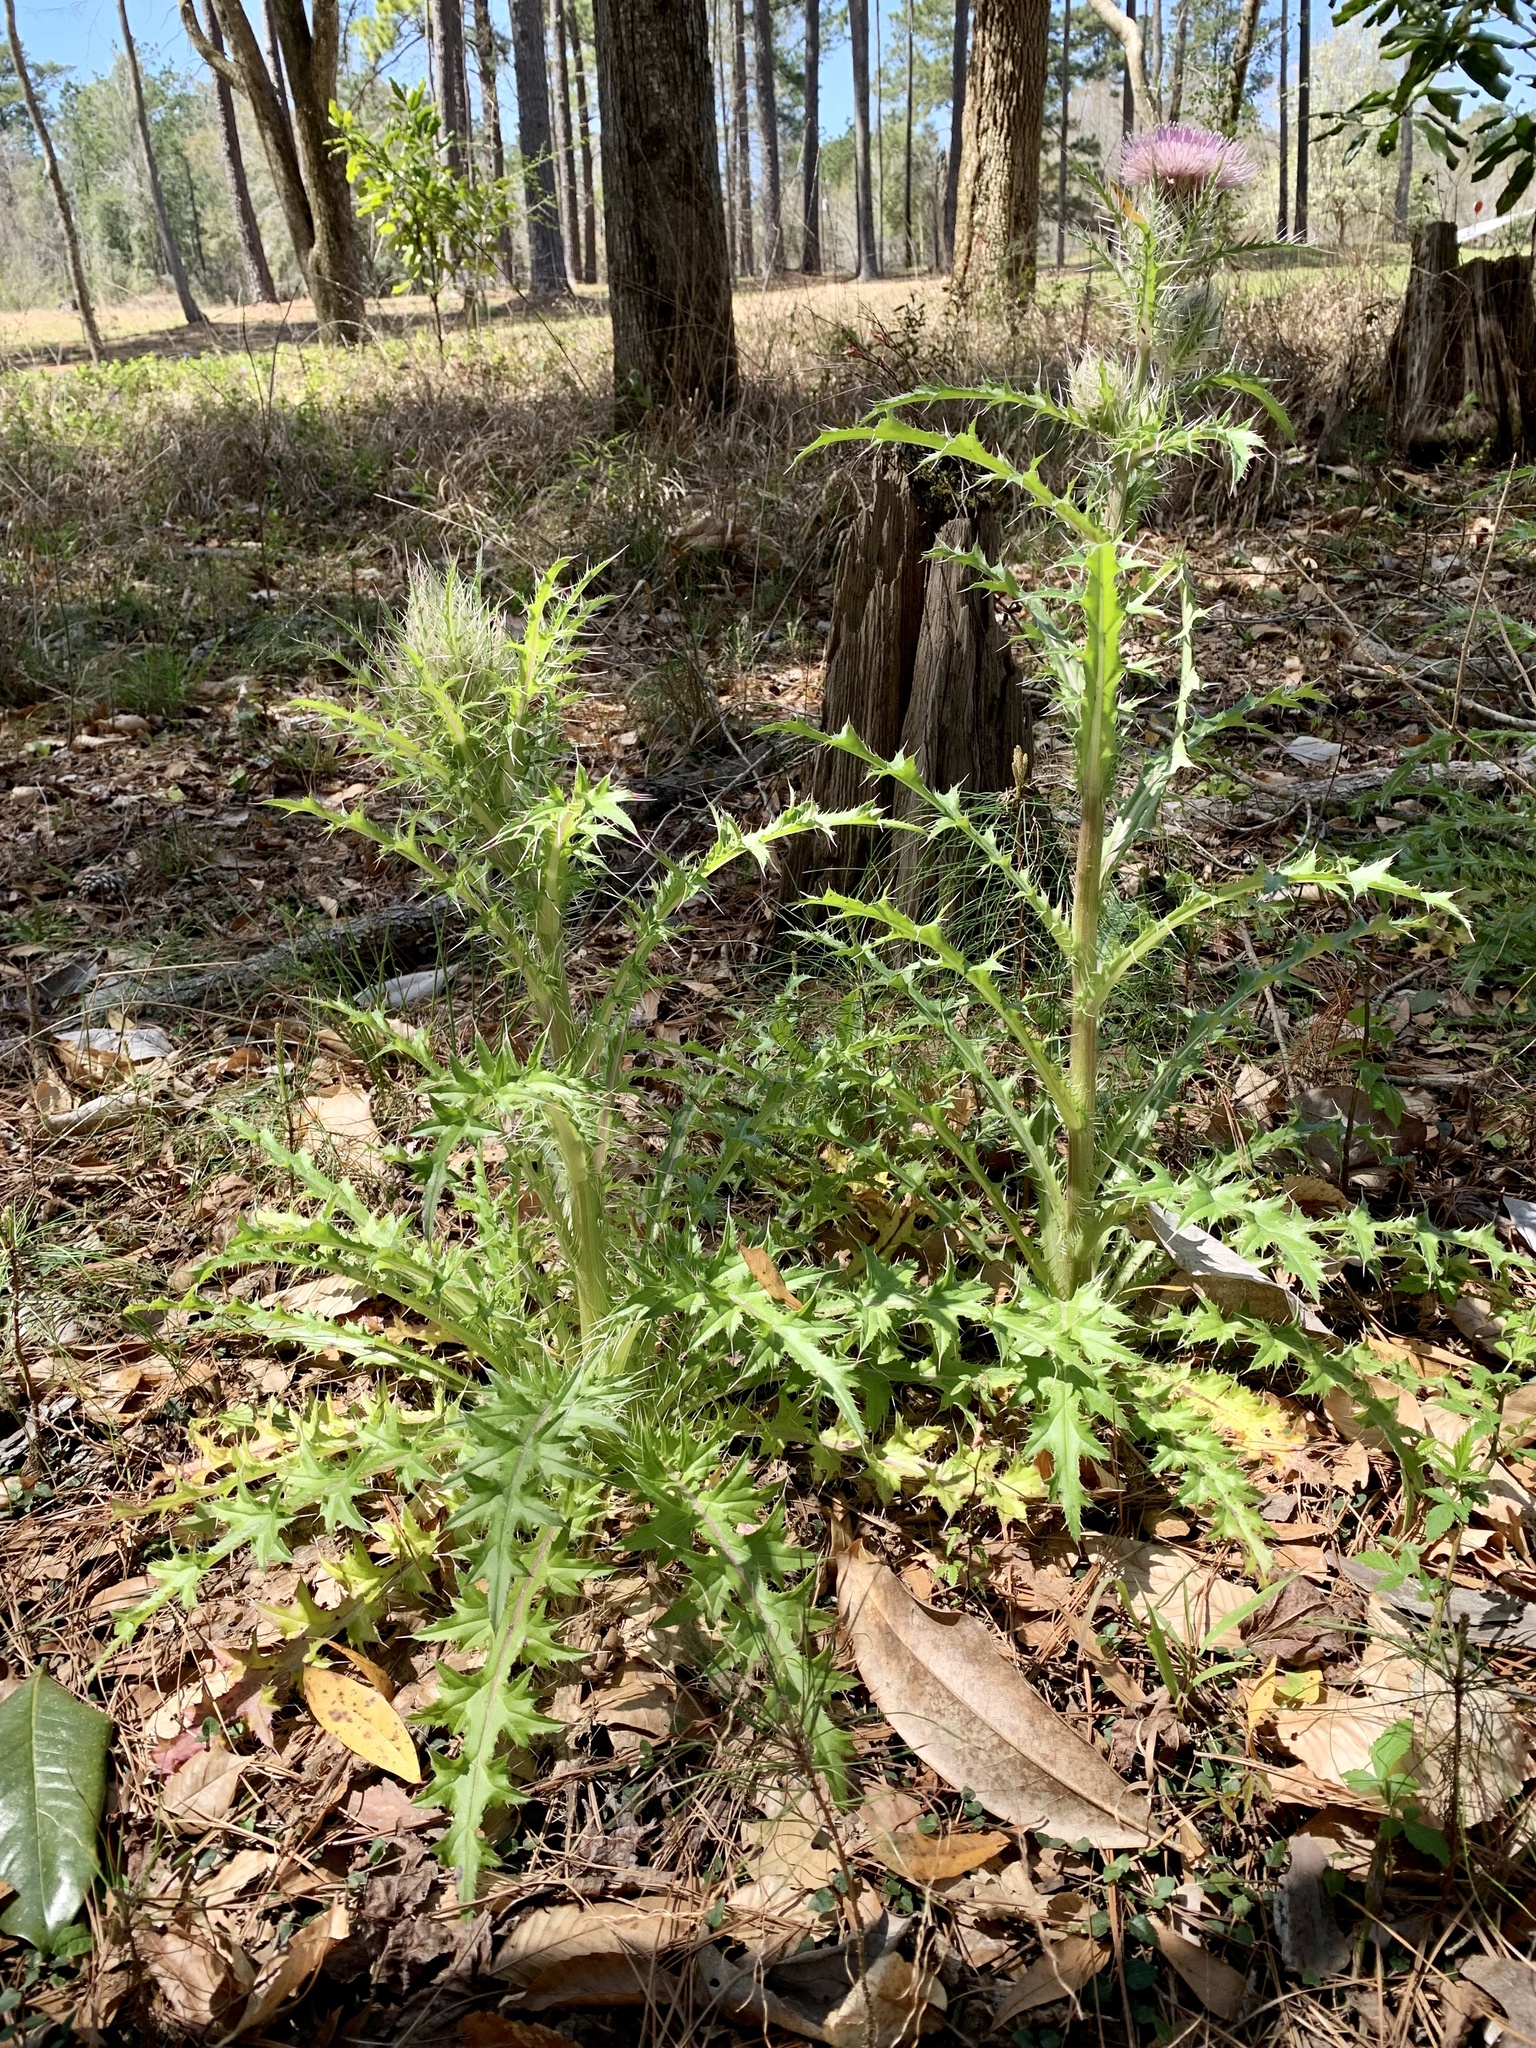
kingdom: Plantae
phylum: Tracheophyta
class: Magnoliopsida
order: Asterales
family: Asteraceae
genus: Cirsium
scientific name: Cirsium horridulum
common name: Bristly thistle
